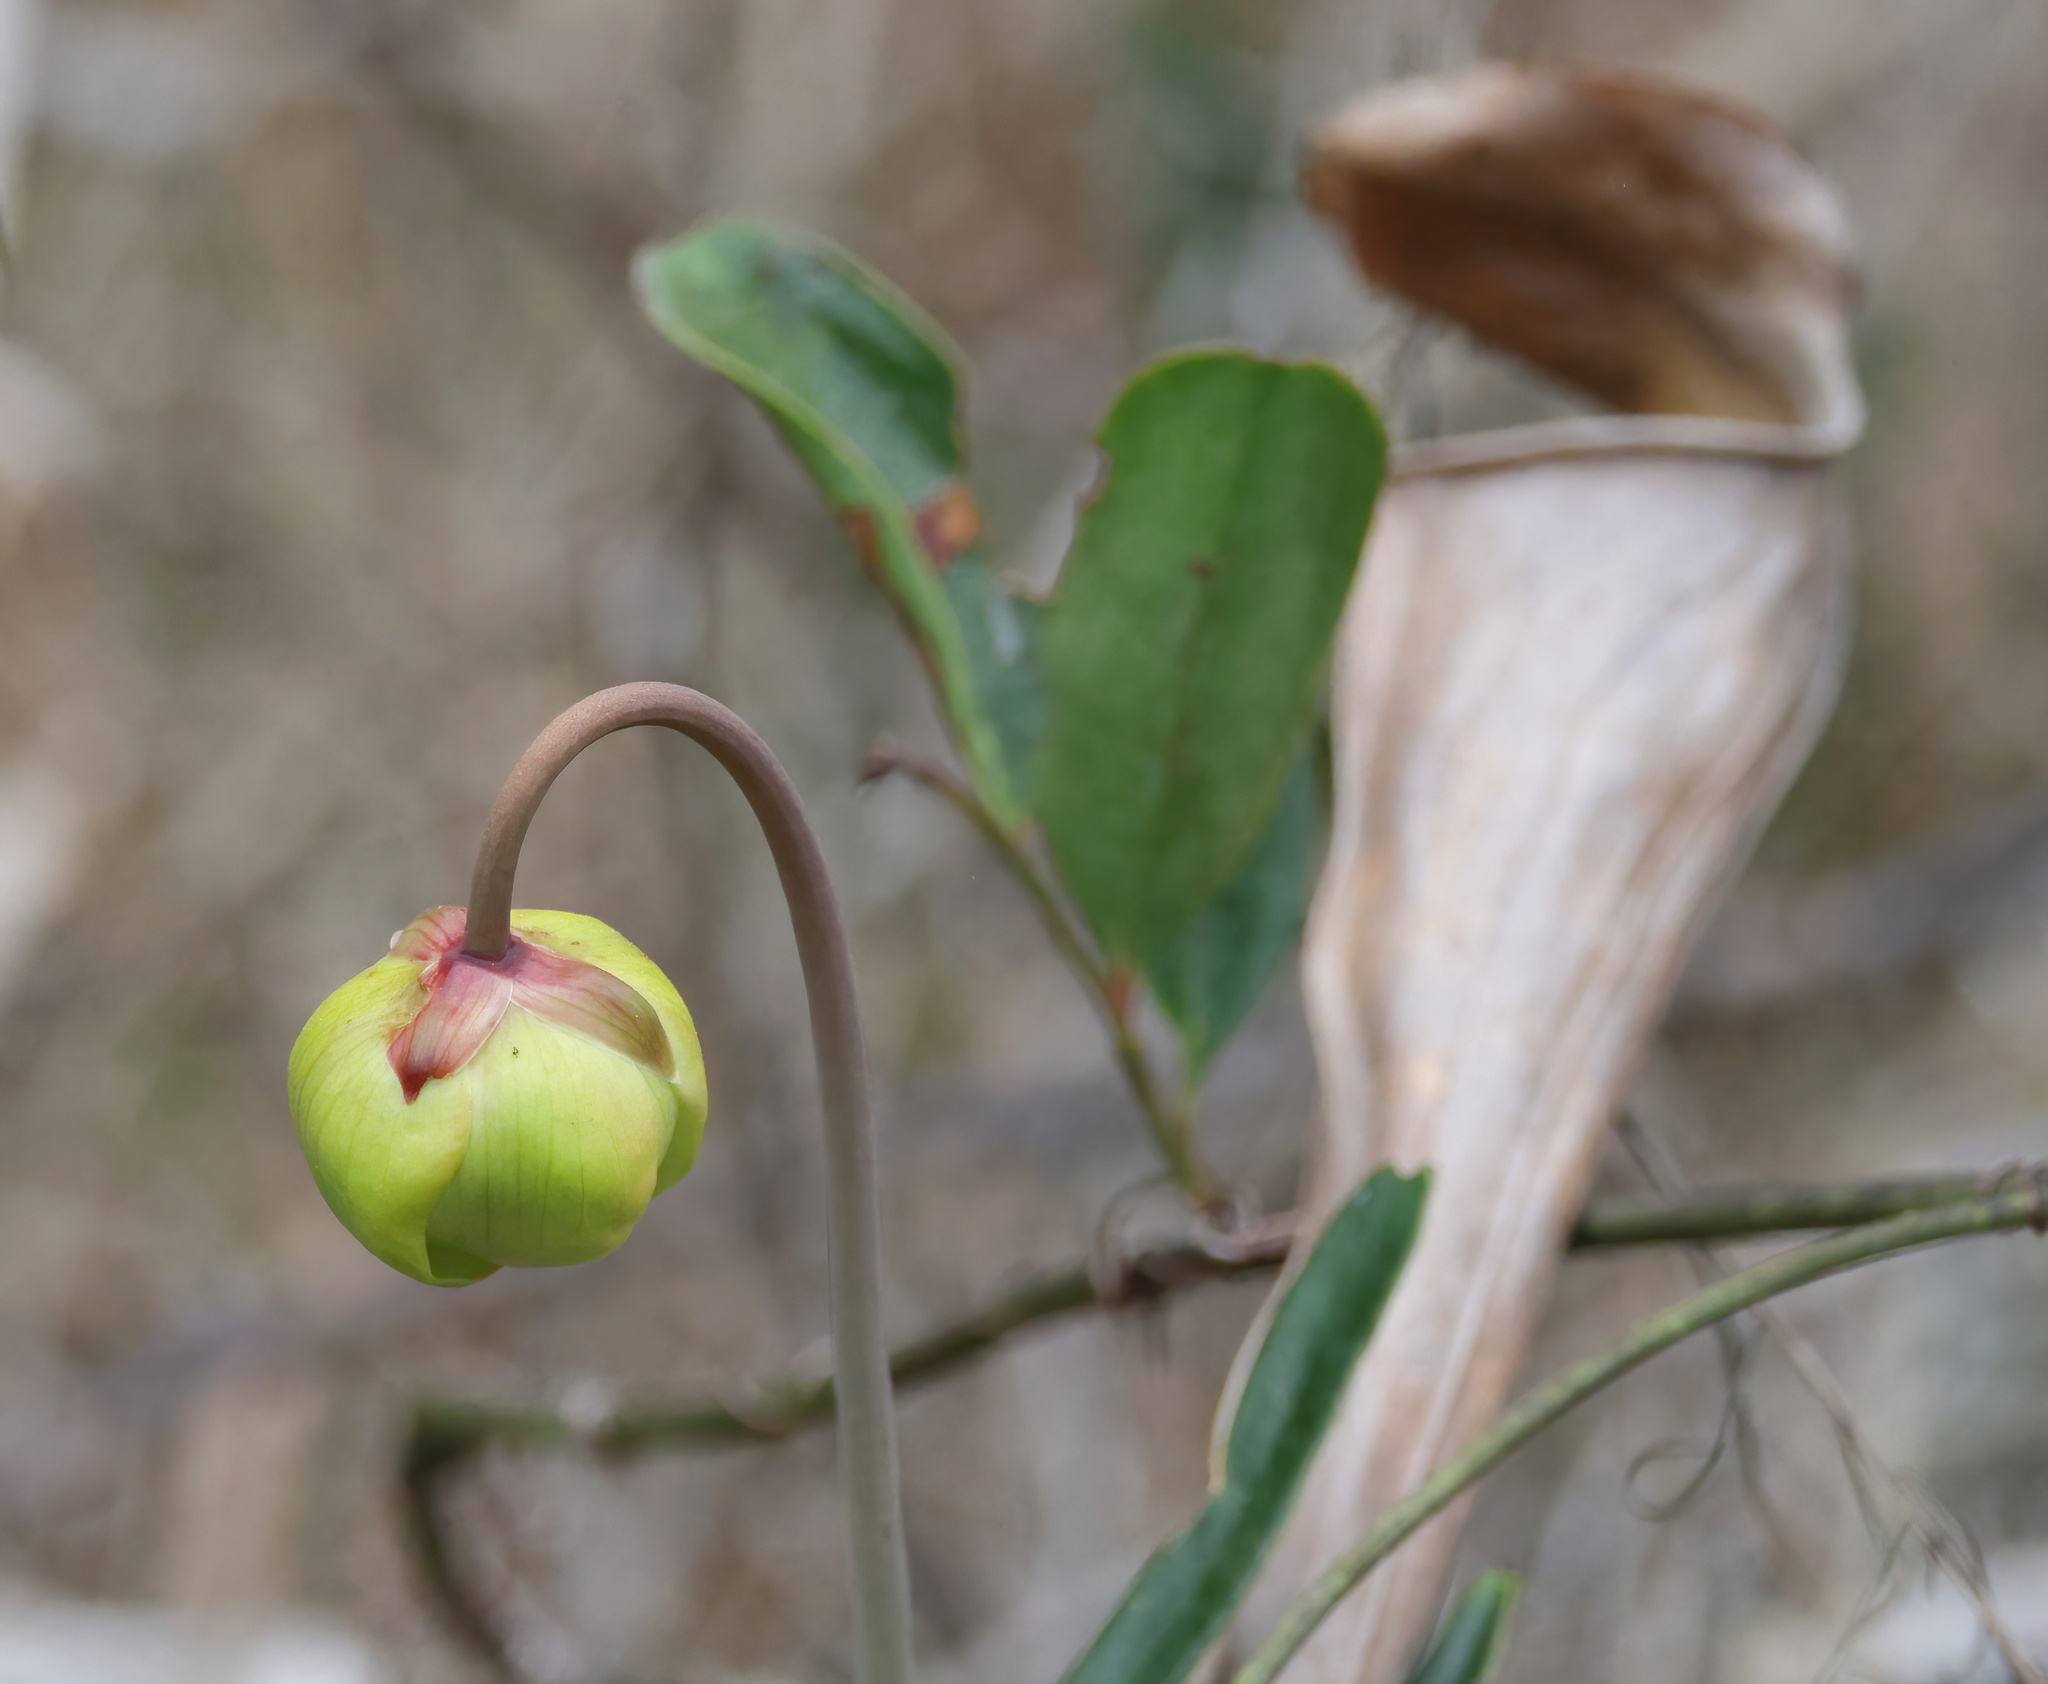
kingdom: Plantae
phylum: Tracheophyta
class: Magnoliopsida
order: Ericales
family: Sarraceniaceae
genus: Sarracenia
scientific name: Sarracenia alata
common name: Yellow trumpets
